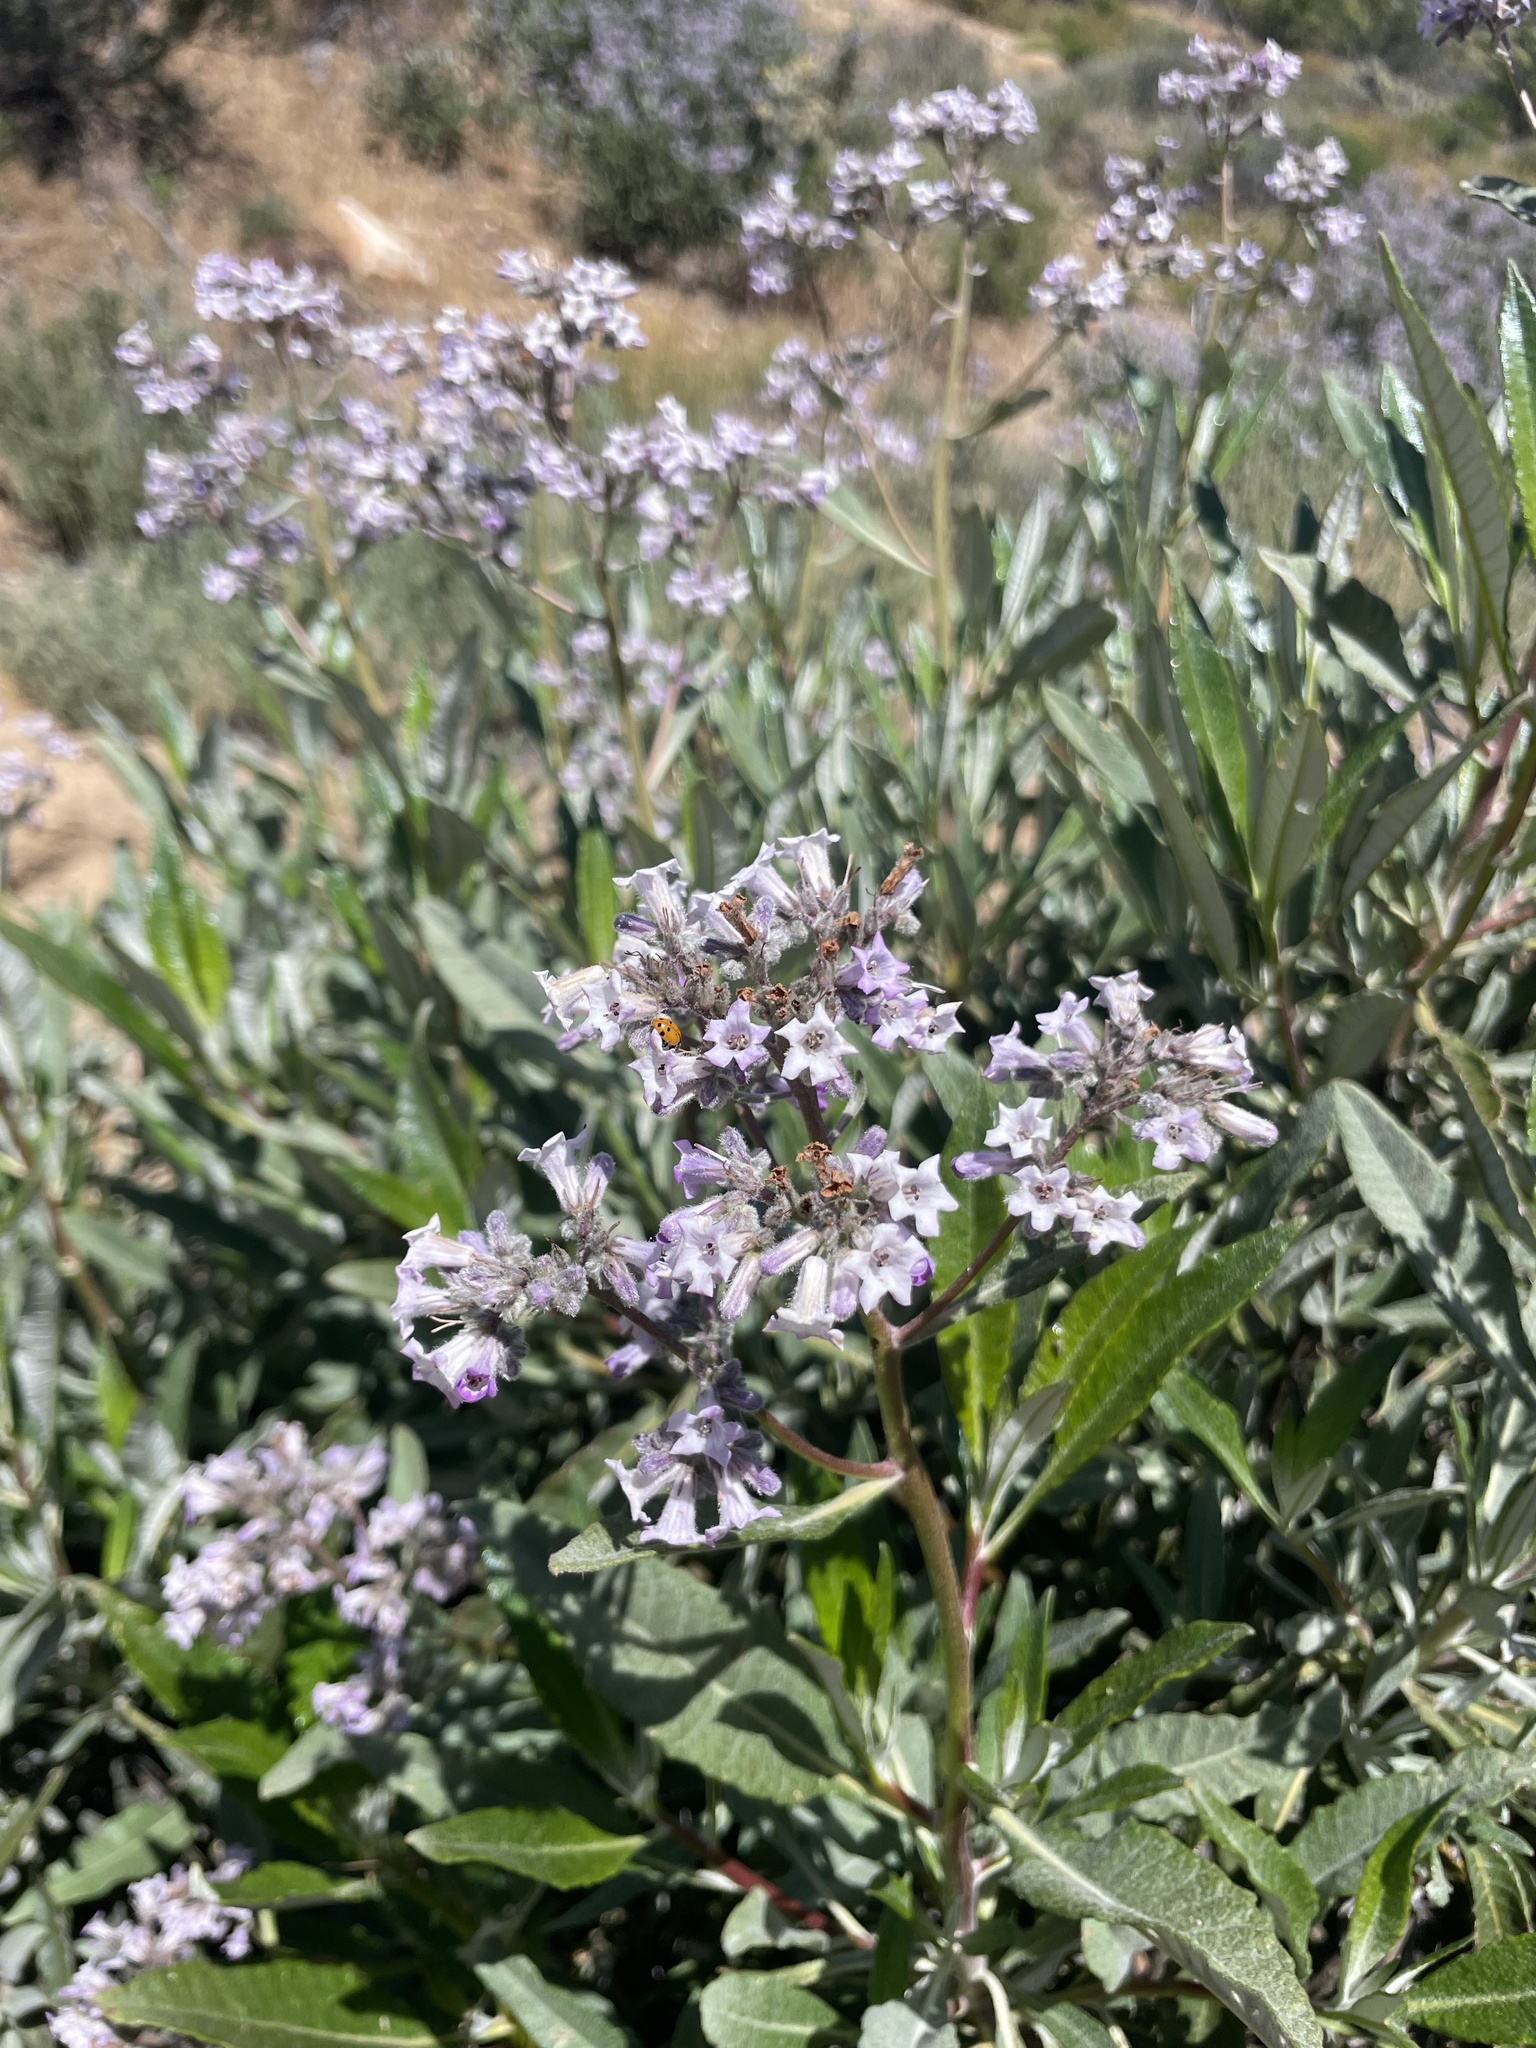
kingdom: Plantae
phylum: Tracheophyta
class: Magnoliopsida
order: Boraginales
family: Namaceae
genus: Eriodictyon
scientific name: Eriodictyon trichocalyx
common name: Hairy yerba-santa
